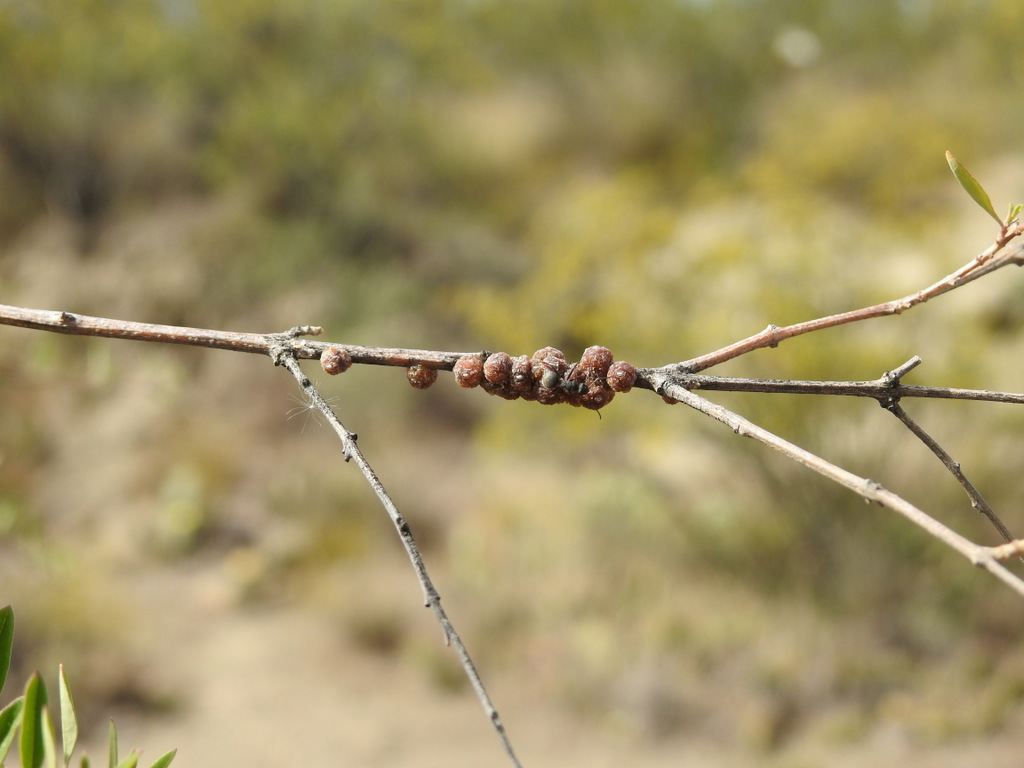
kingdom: Animalia
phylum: Arthropoda
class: Insecta
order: Hymenoptera
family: Formicidae
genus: Camponotus
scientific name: Camponotus mus
